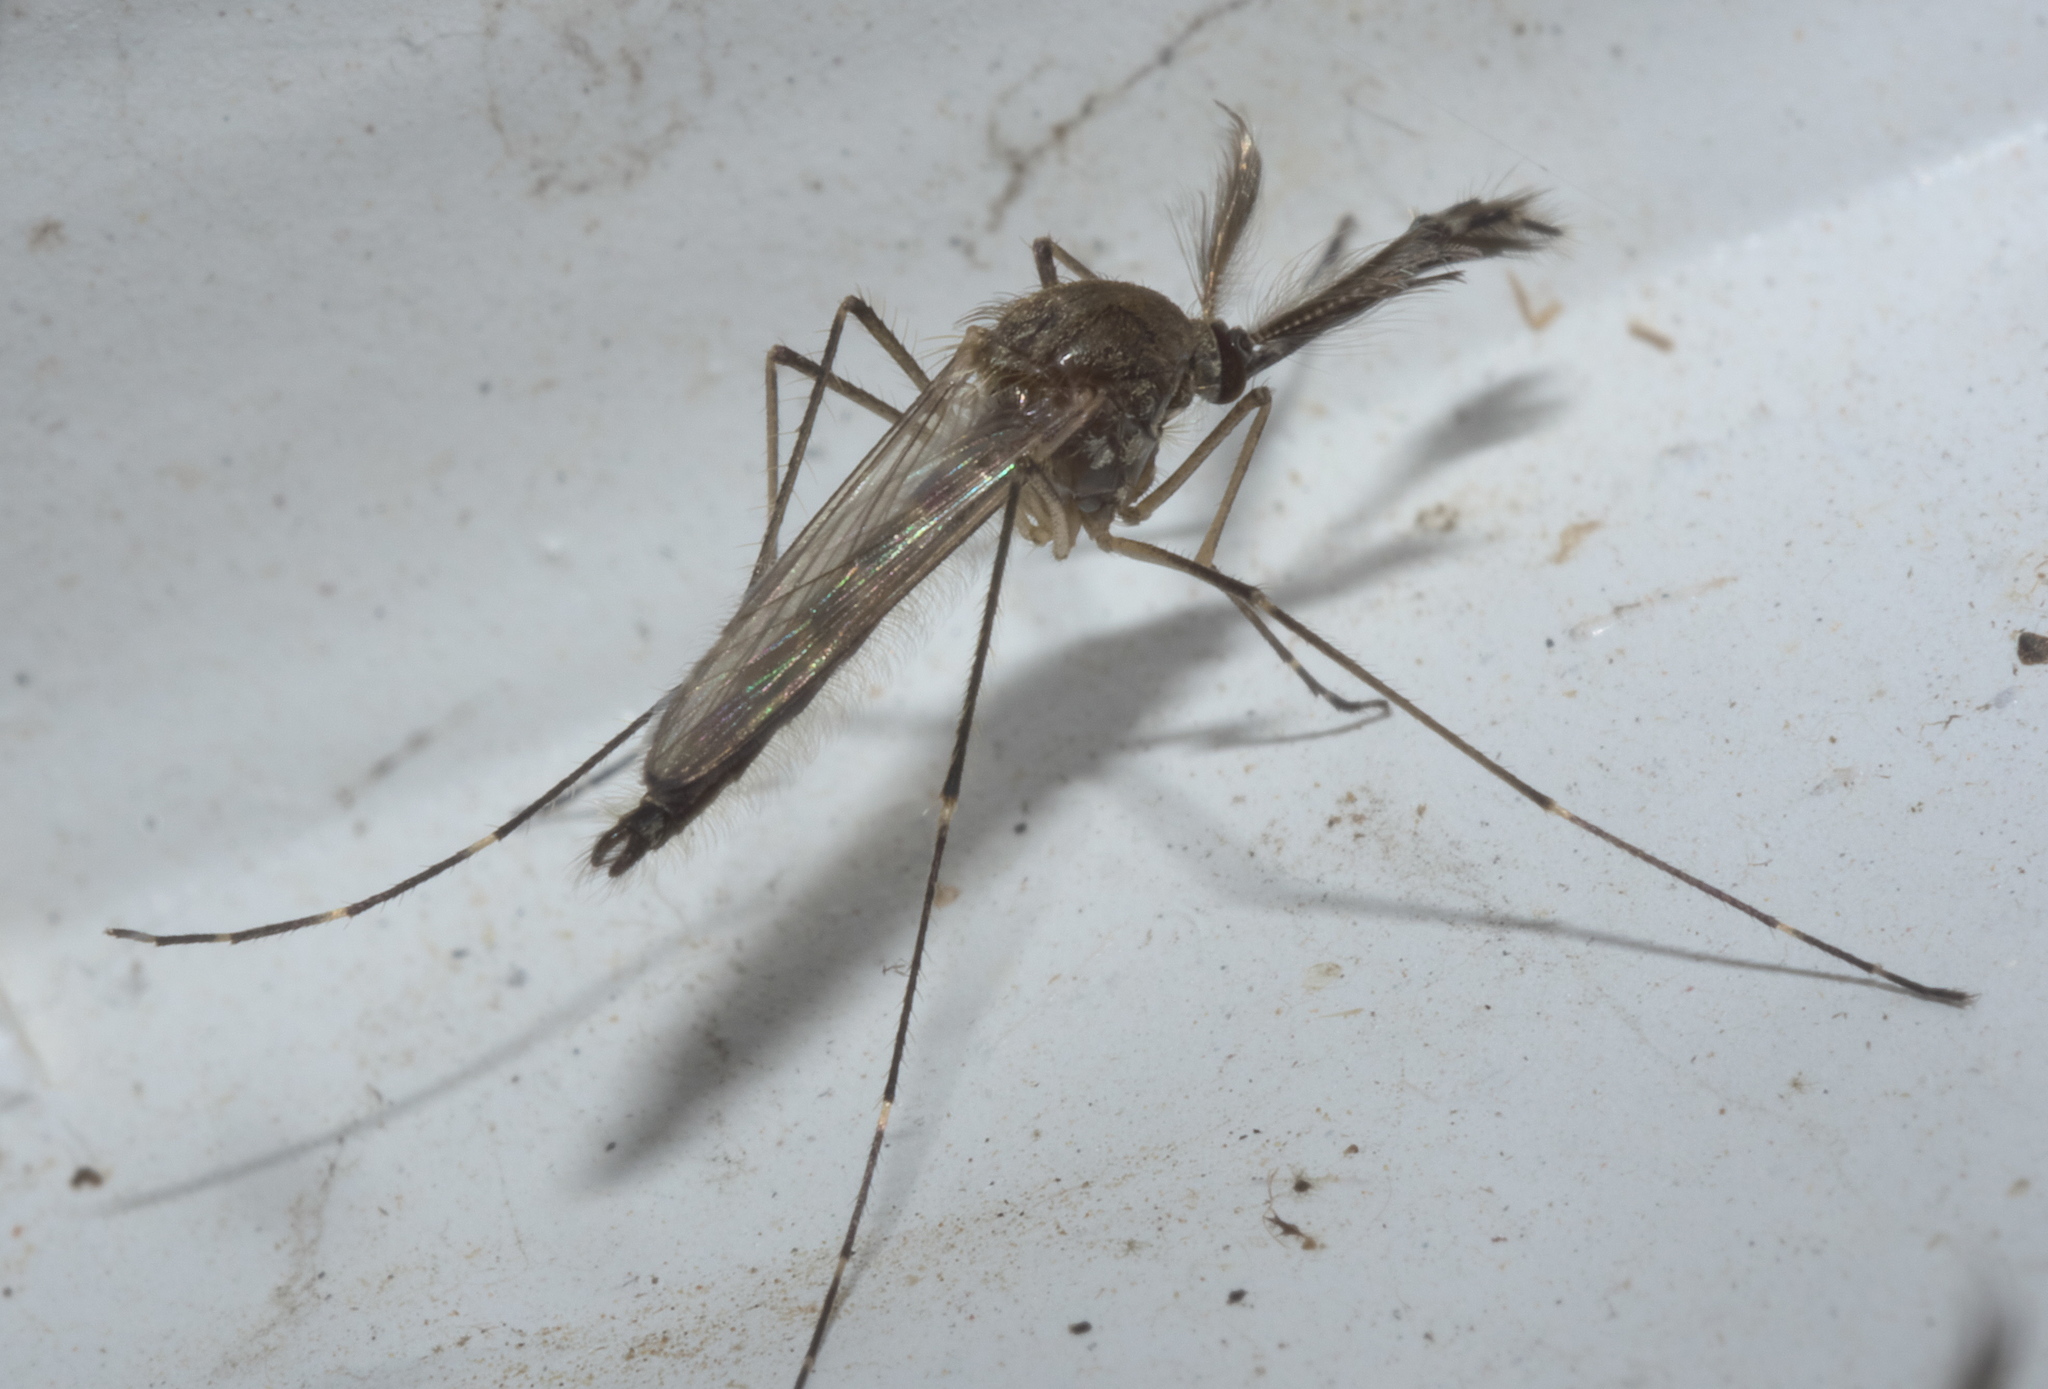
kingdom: Animalia
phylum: Arthropoda
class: Insecta
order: Diptera
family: Culicidae
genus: Aedes
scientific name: Aedes vexans
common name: Inland floodwater mosquito
